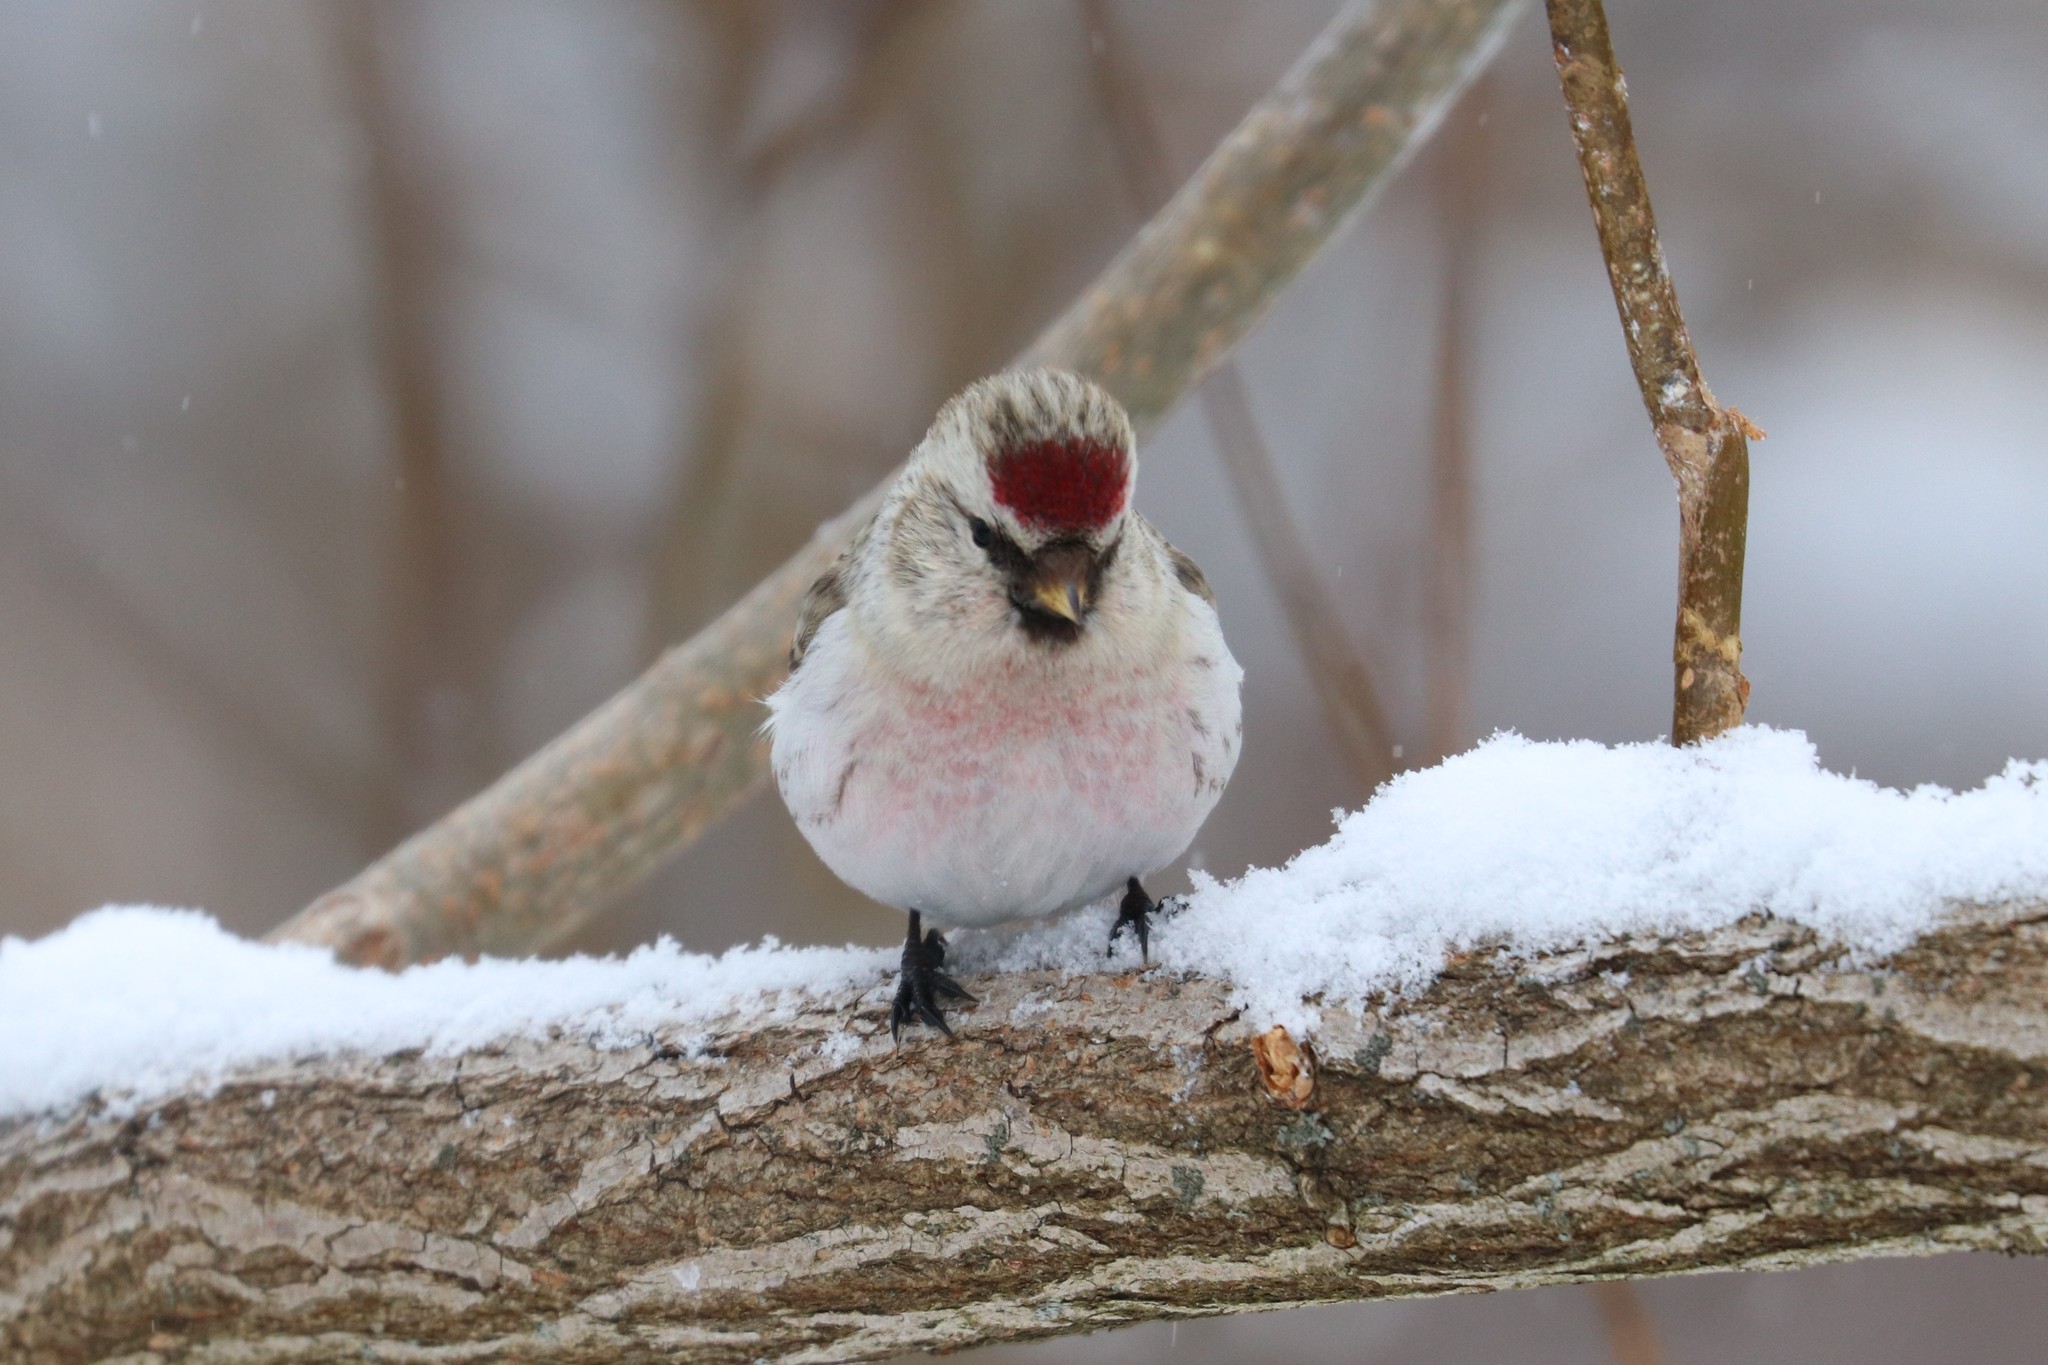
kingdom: Animalia
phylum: Chordata
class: Aves
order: Passeriformes
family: Fringillidae
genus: Acanthis
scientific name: Acanthis hornemanni
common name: Arctic redpoll
